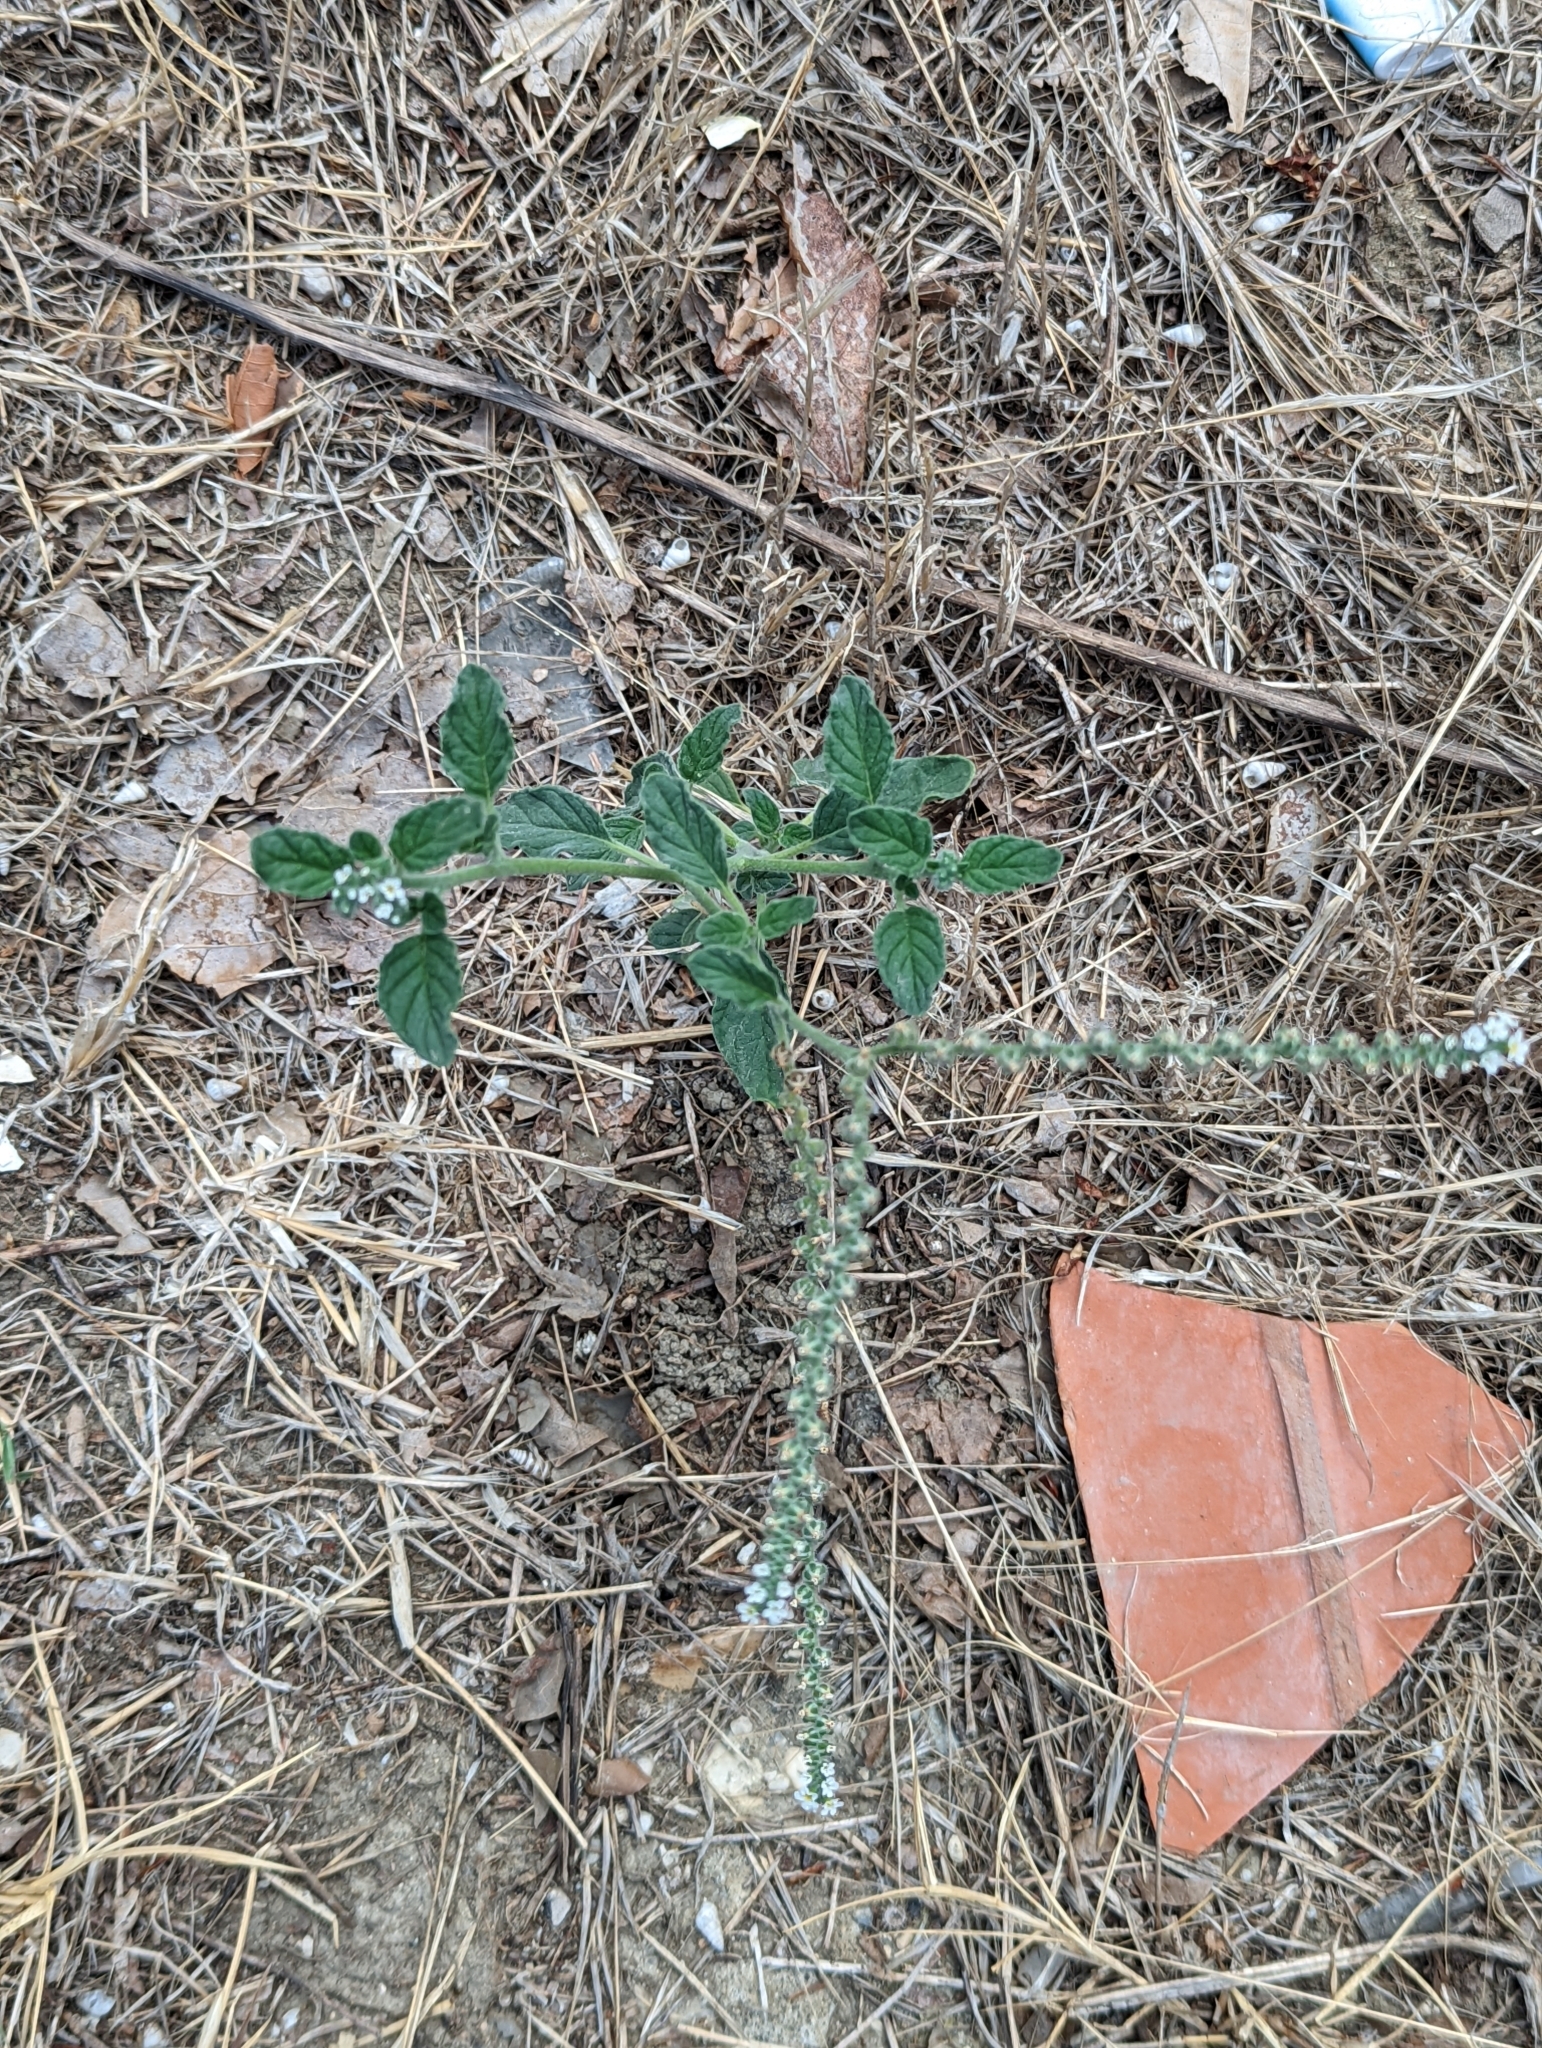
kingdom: Plantae
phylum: Tracheophyta
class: Magnoliopsida
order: Boraginales
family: Heliotropiaceae
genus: Heliotropium
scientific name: Heliotropium europaeum
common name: European heliotrope
